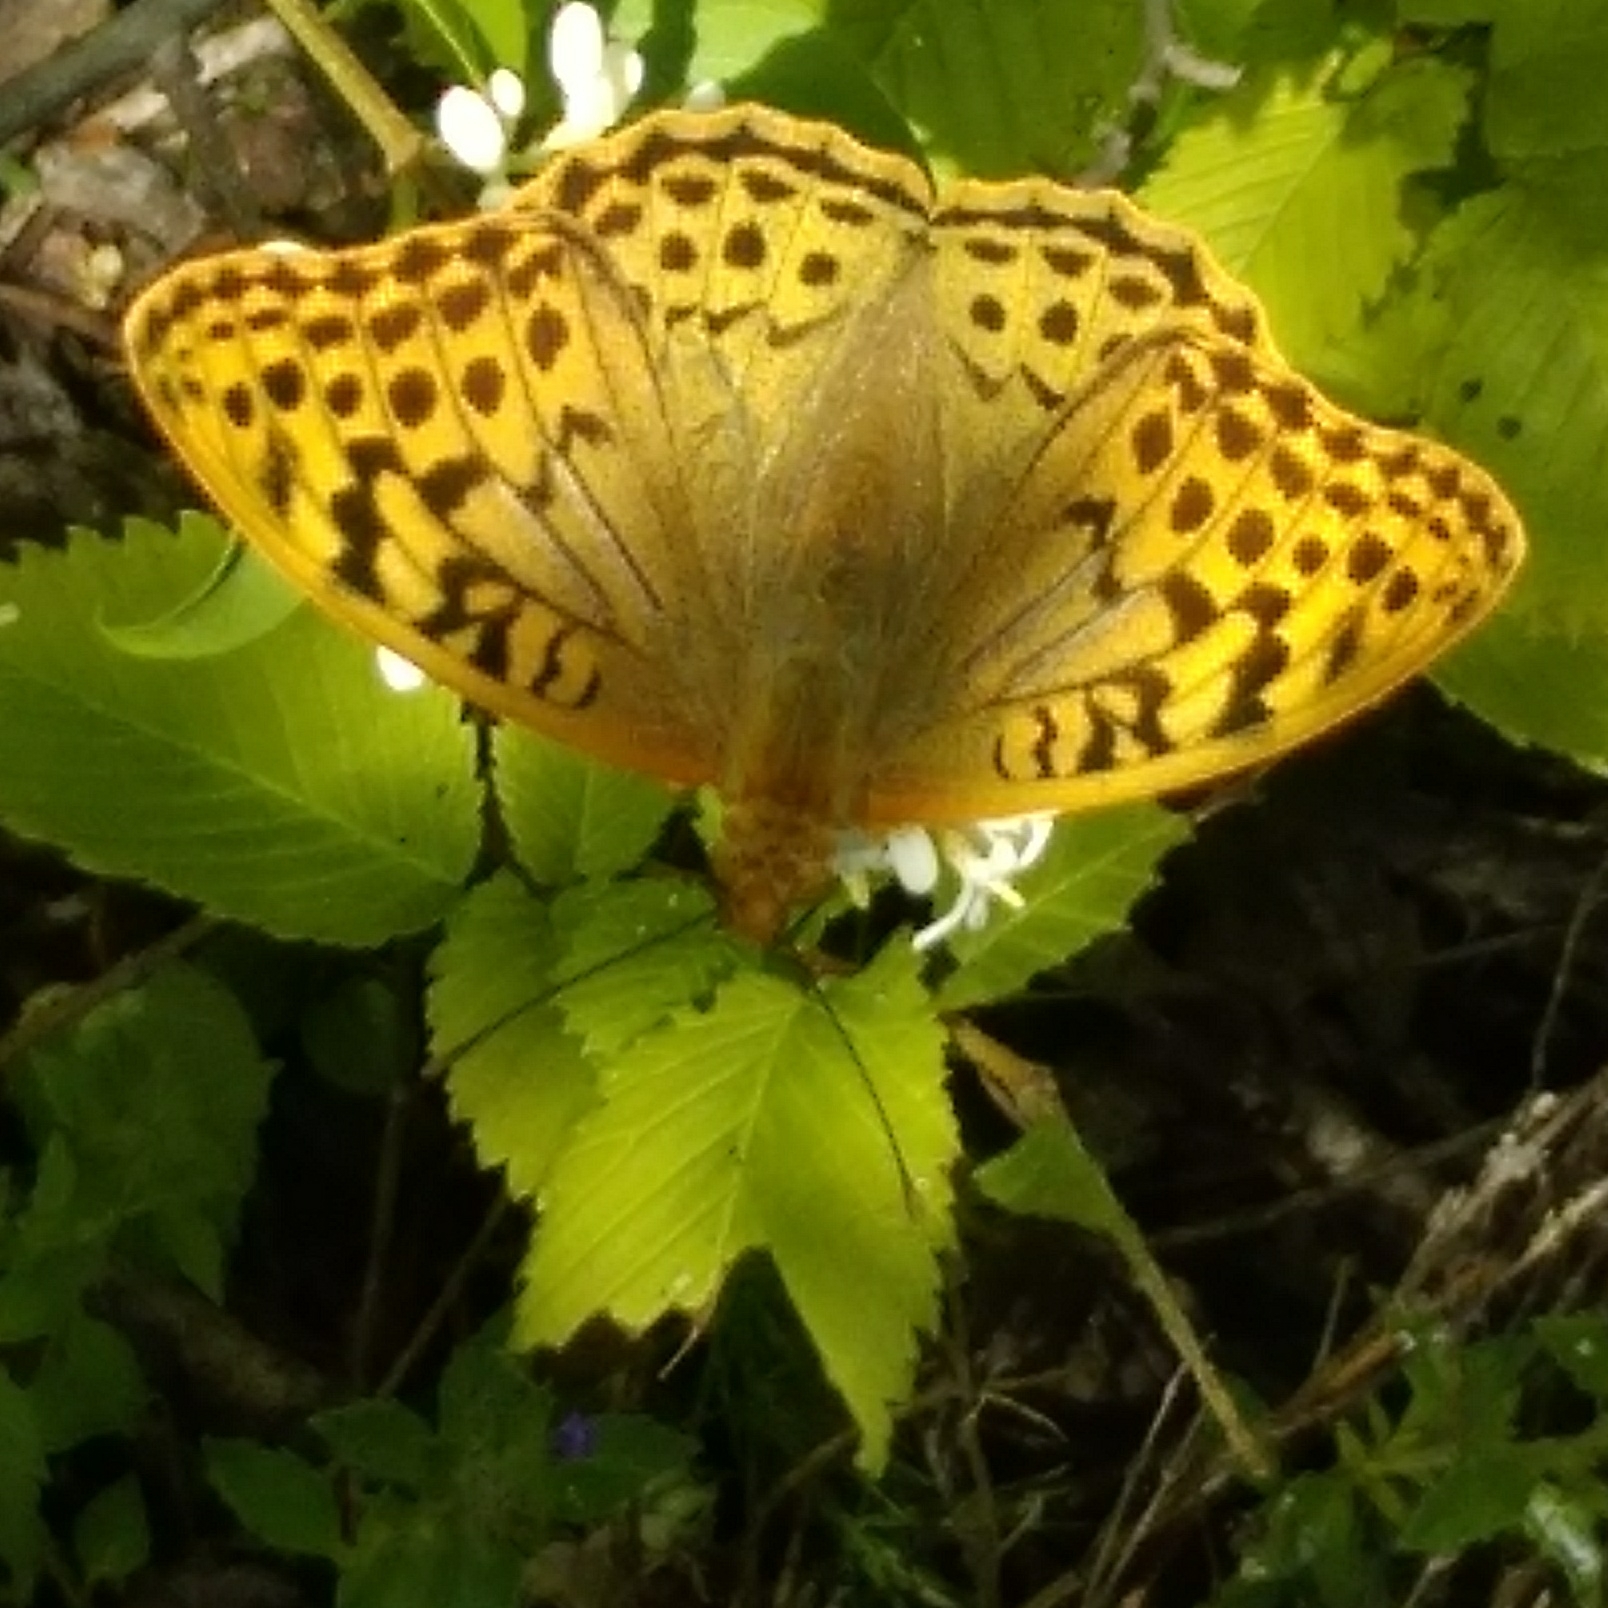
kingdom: Animalia
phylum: Arthropoda
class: Insecta
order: Lepidoptera
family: Nymphalidae
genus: Damora
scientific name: Damora pandora
